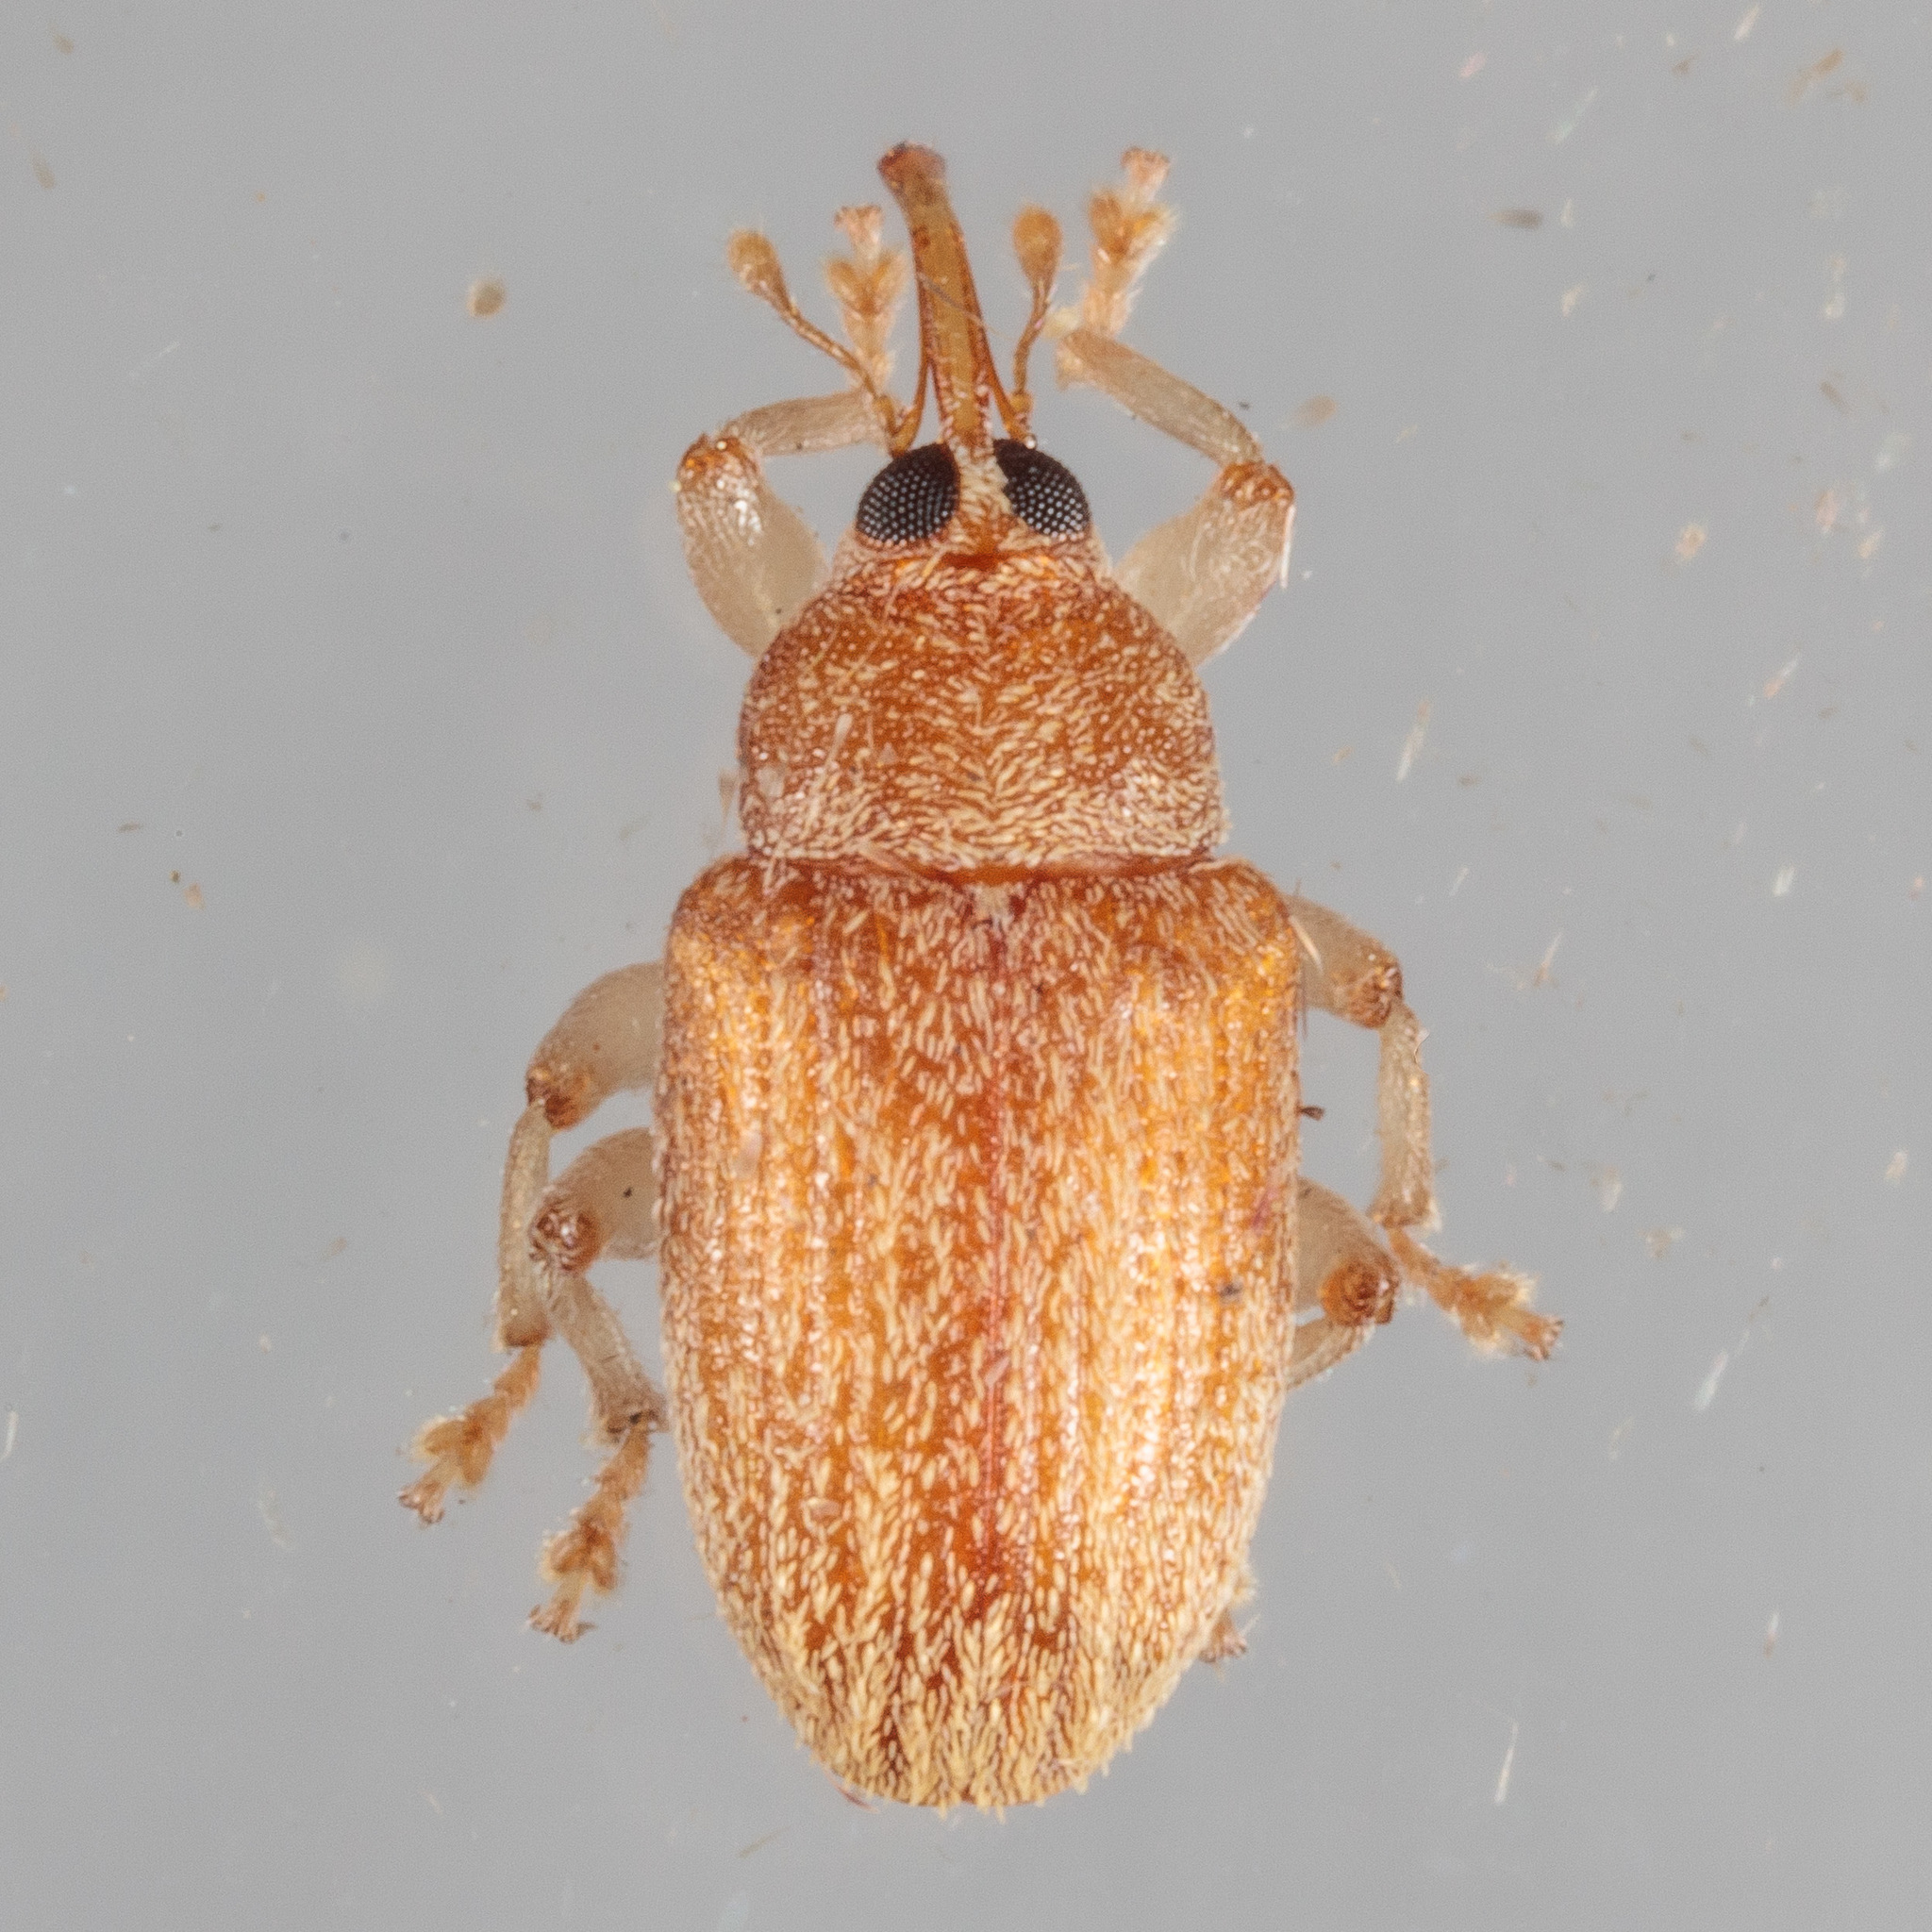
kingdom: Animalia
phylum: Arthropoda
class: Insecta
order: Coleoptera
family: Curculionidae
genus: Lignyodes
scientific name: Lignyodes helvolus
